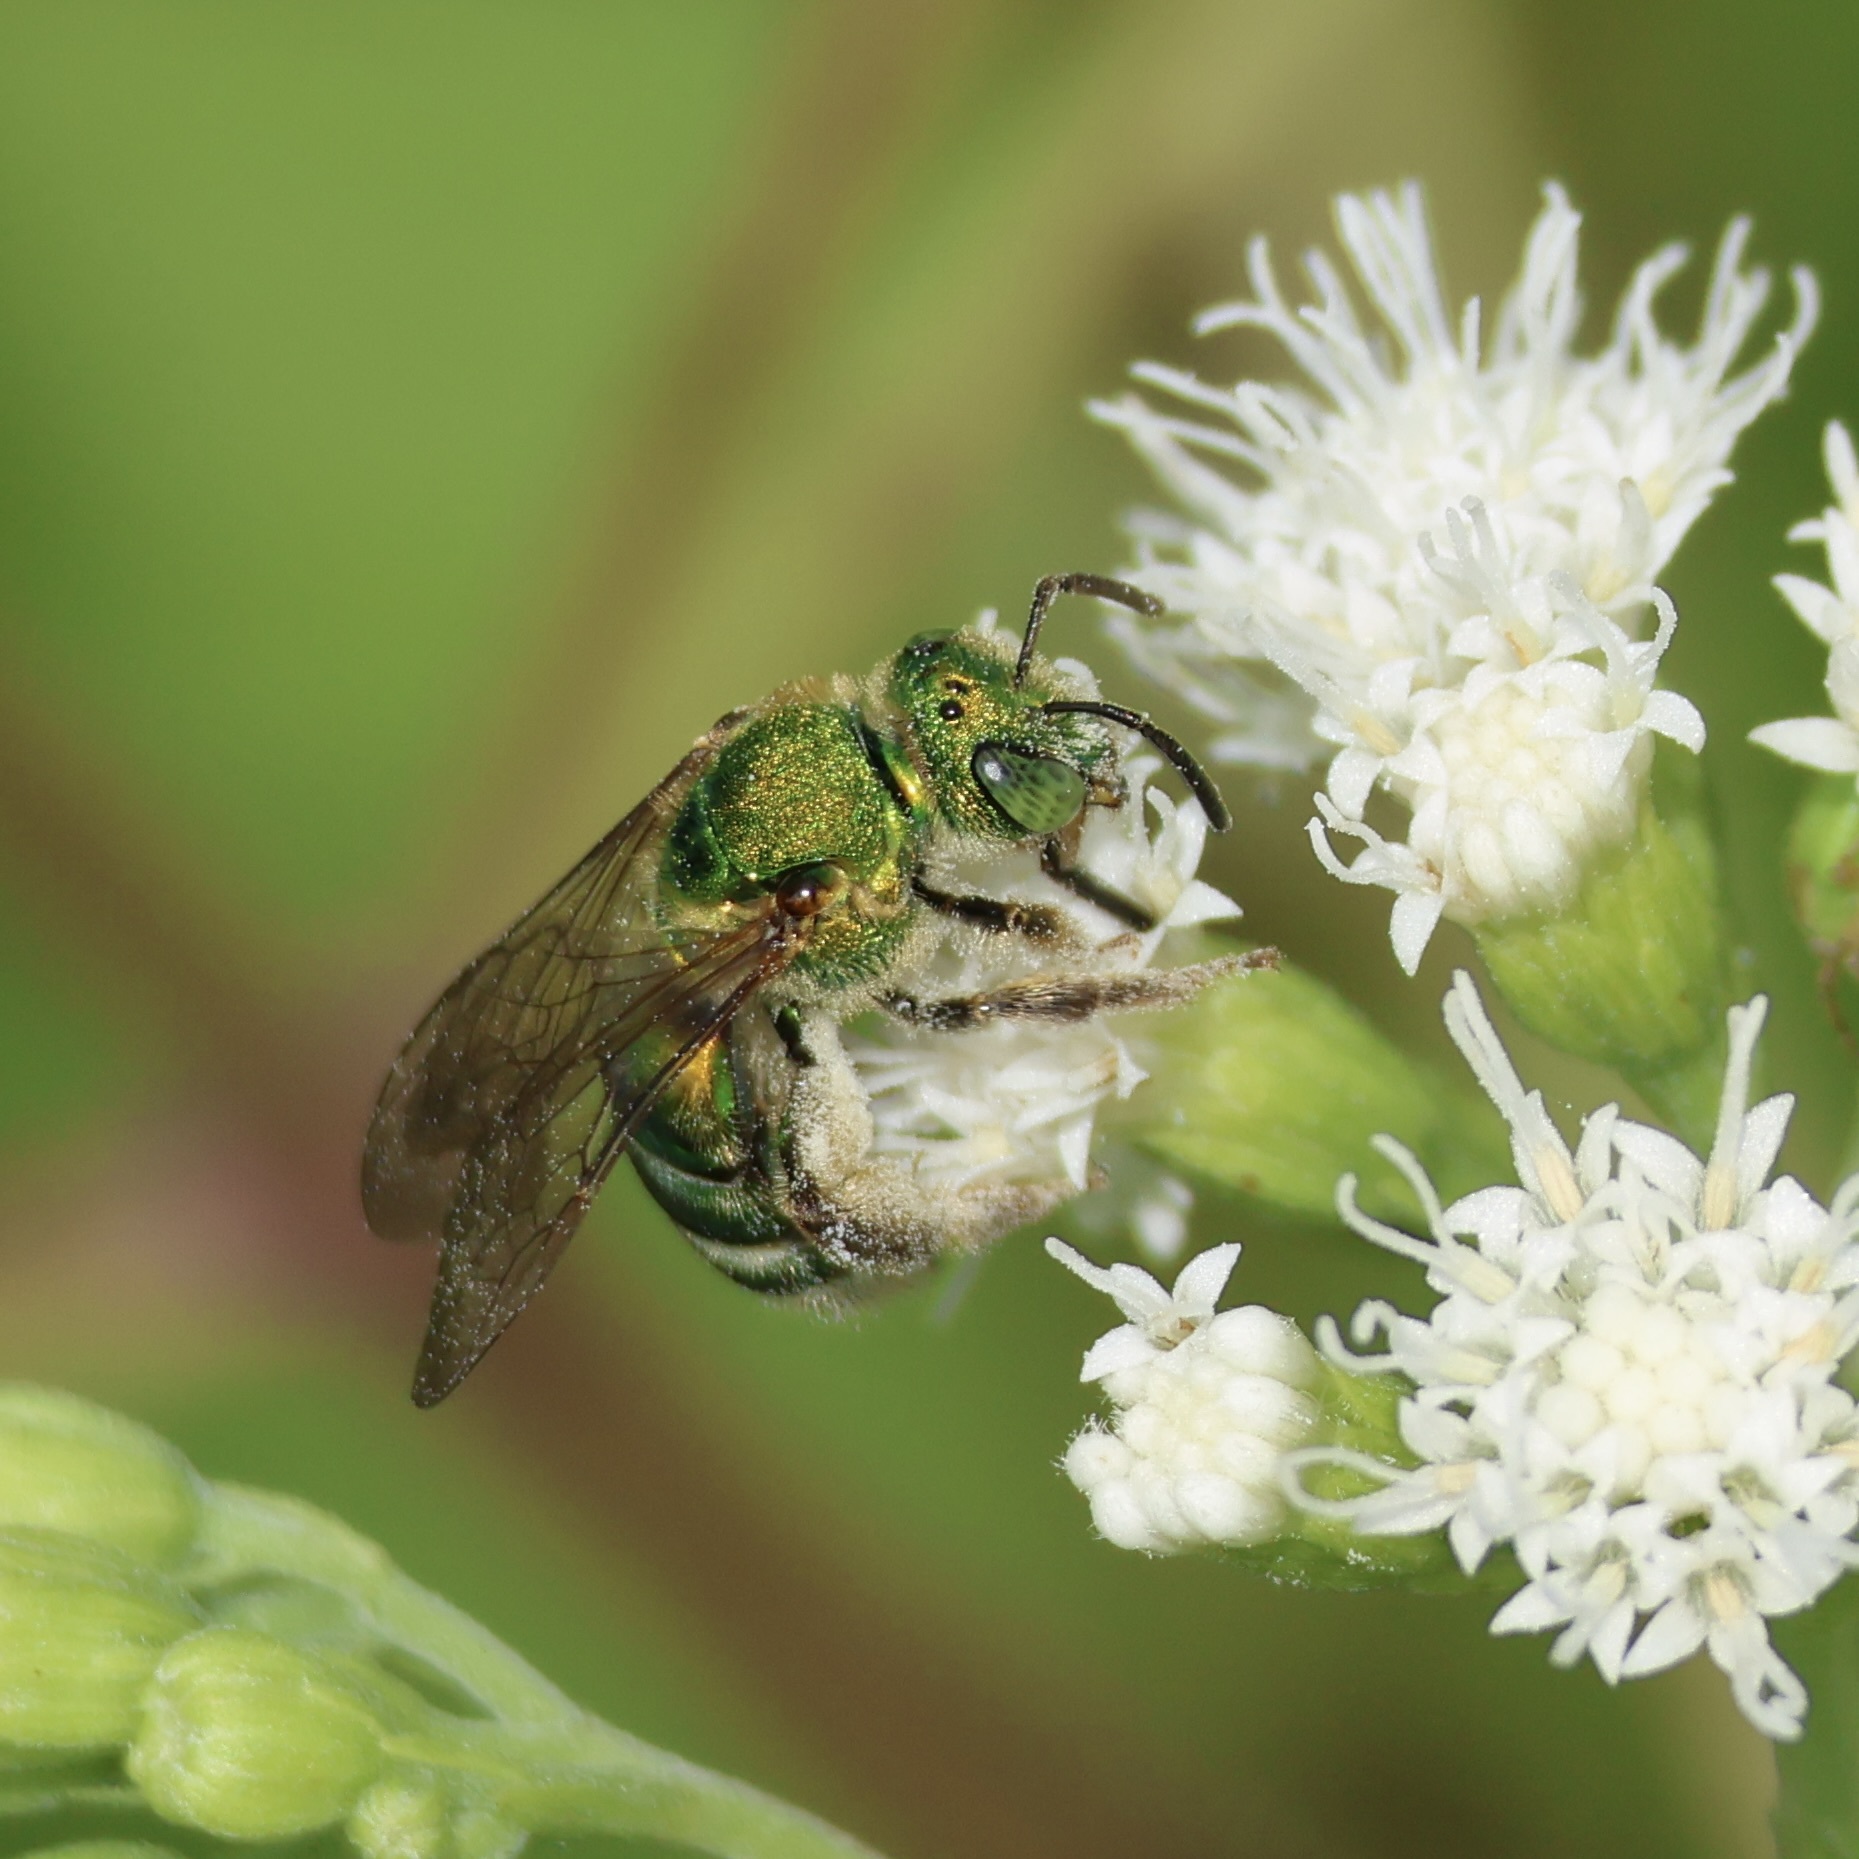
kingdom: Animalia
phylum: Arthropoda
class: Insecta
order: Hymenoptera
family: Halictidae
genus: Agapostemon
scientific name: Agapostemon sericeus
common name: Silky striped sweat bee
